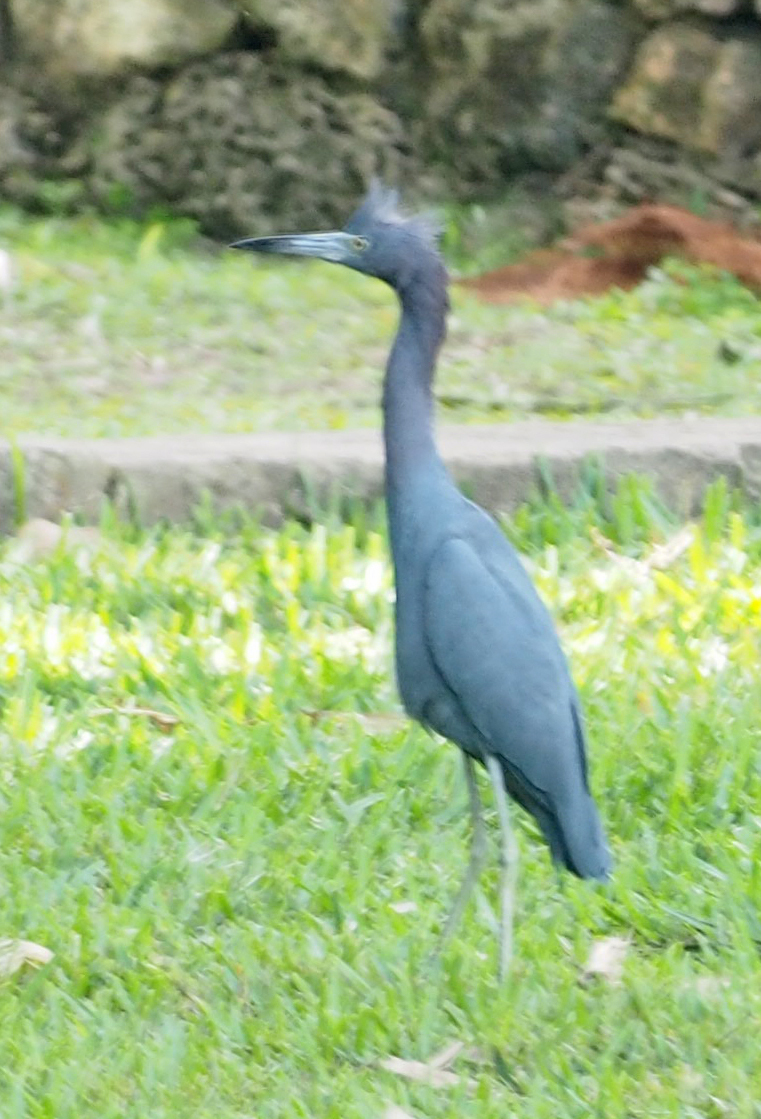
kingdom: Animalia
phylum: Chordata
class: Aves
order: Pelecaniformes
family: Ardeidae
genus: Egretta
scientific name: Egretta caerulea
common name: Little blue heron
